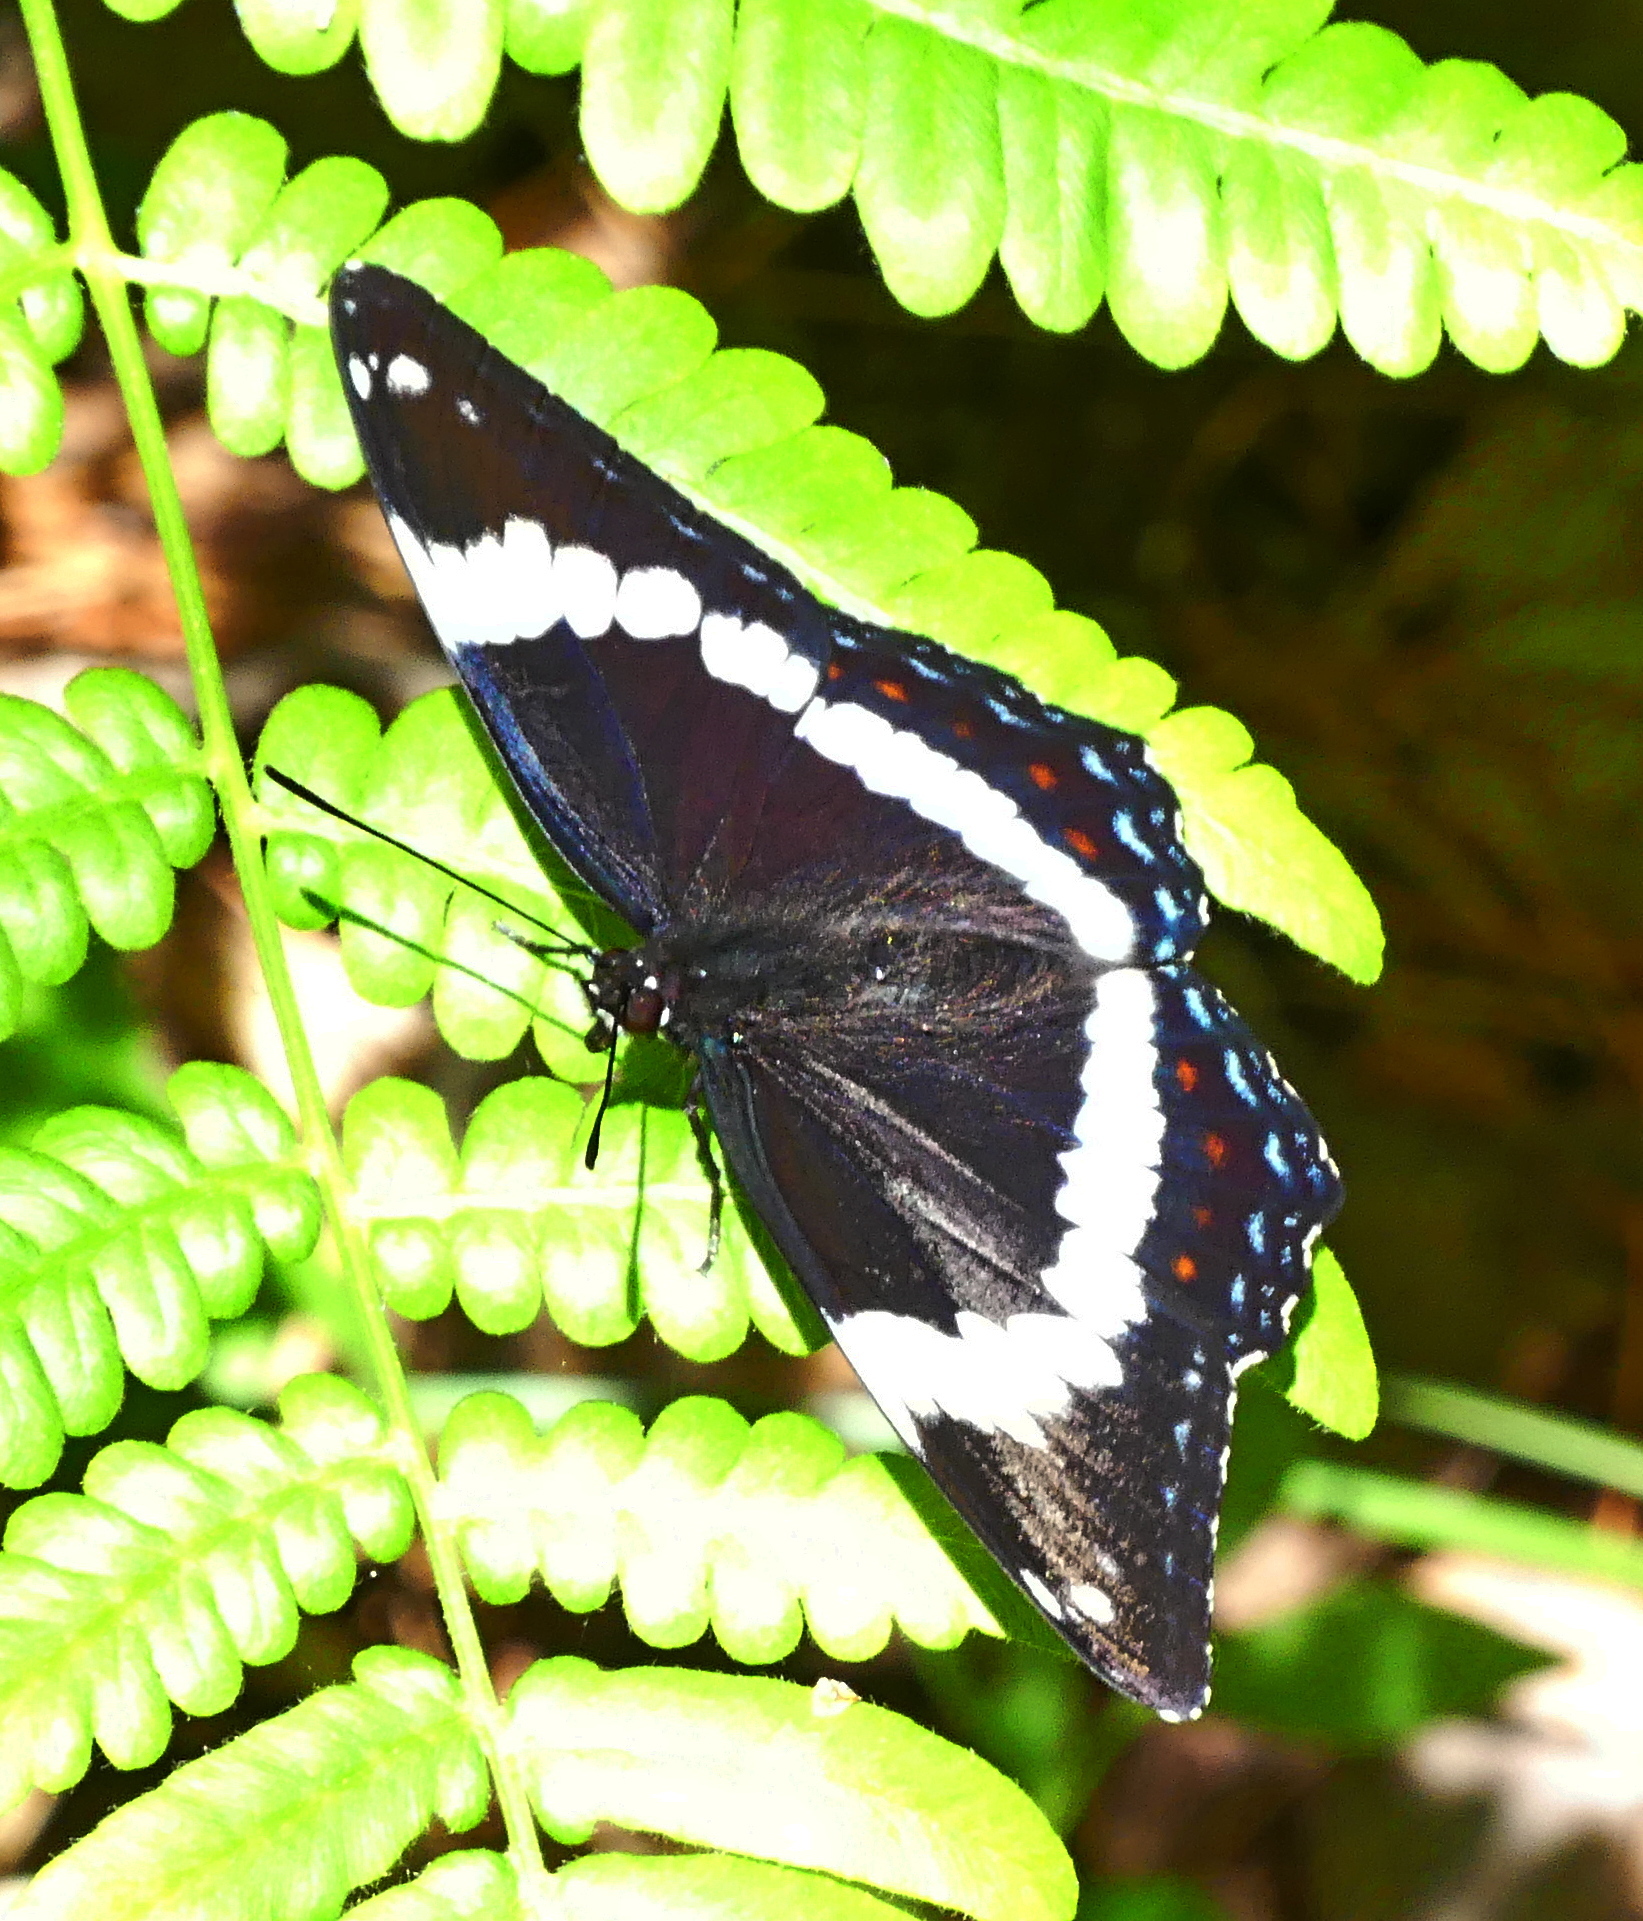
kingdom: Animalia
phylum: Arthropoda
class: Insecta
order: Lepidoptera
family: Nymphalidae
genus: Limenitis
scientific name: Limenitis arthemis
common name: Red-spotted admiral
